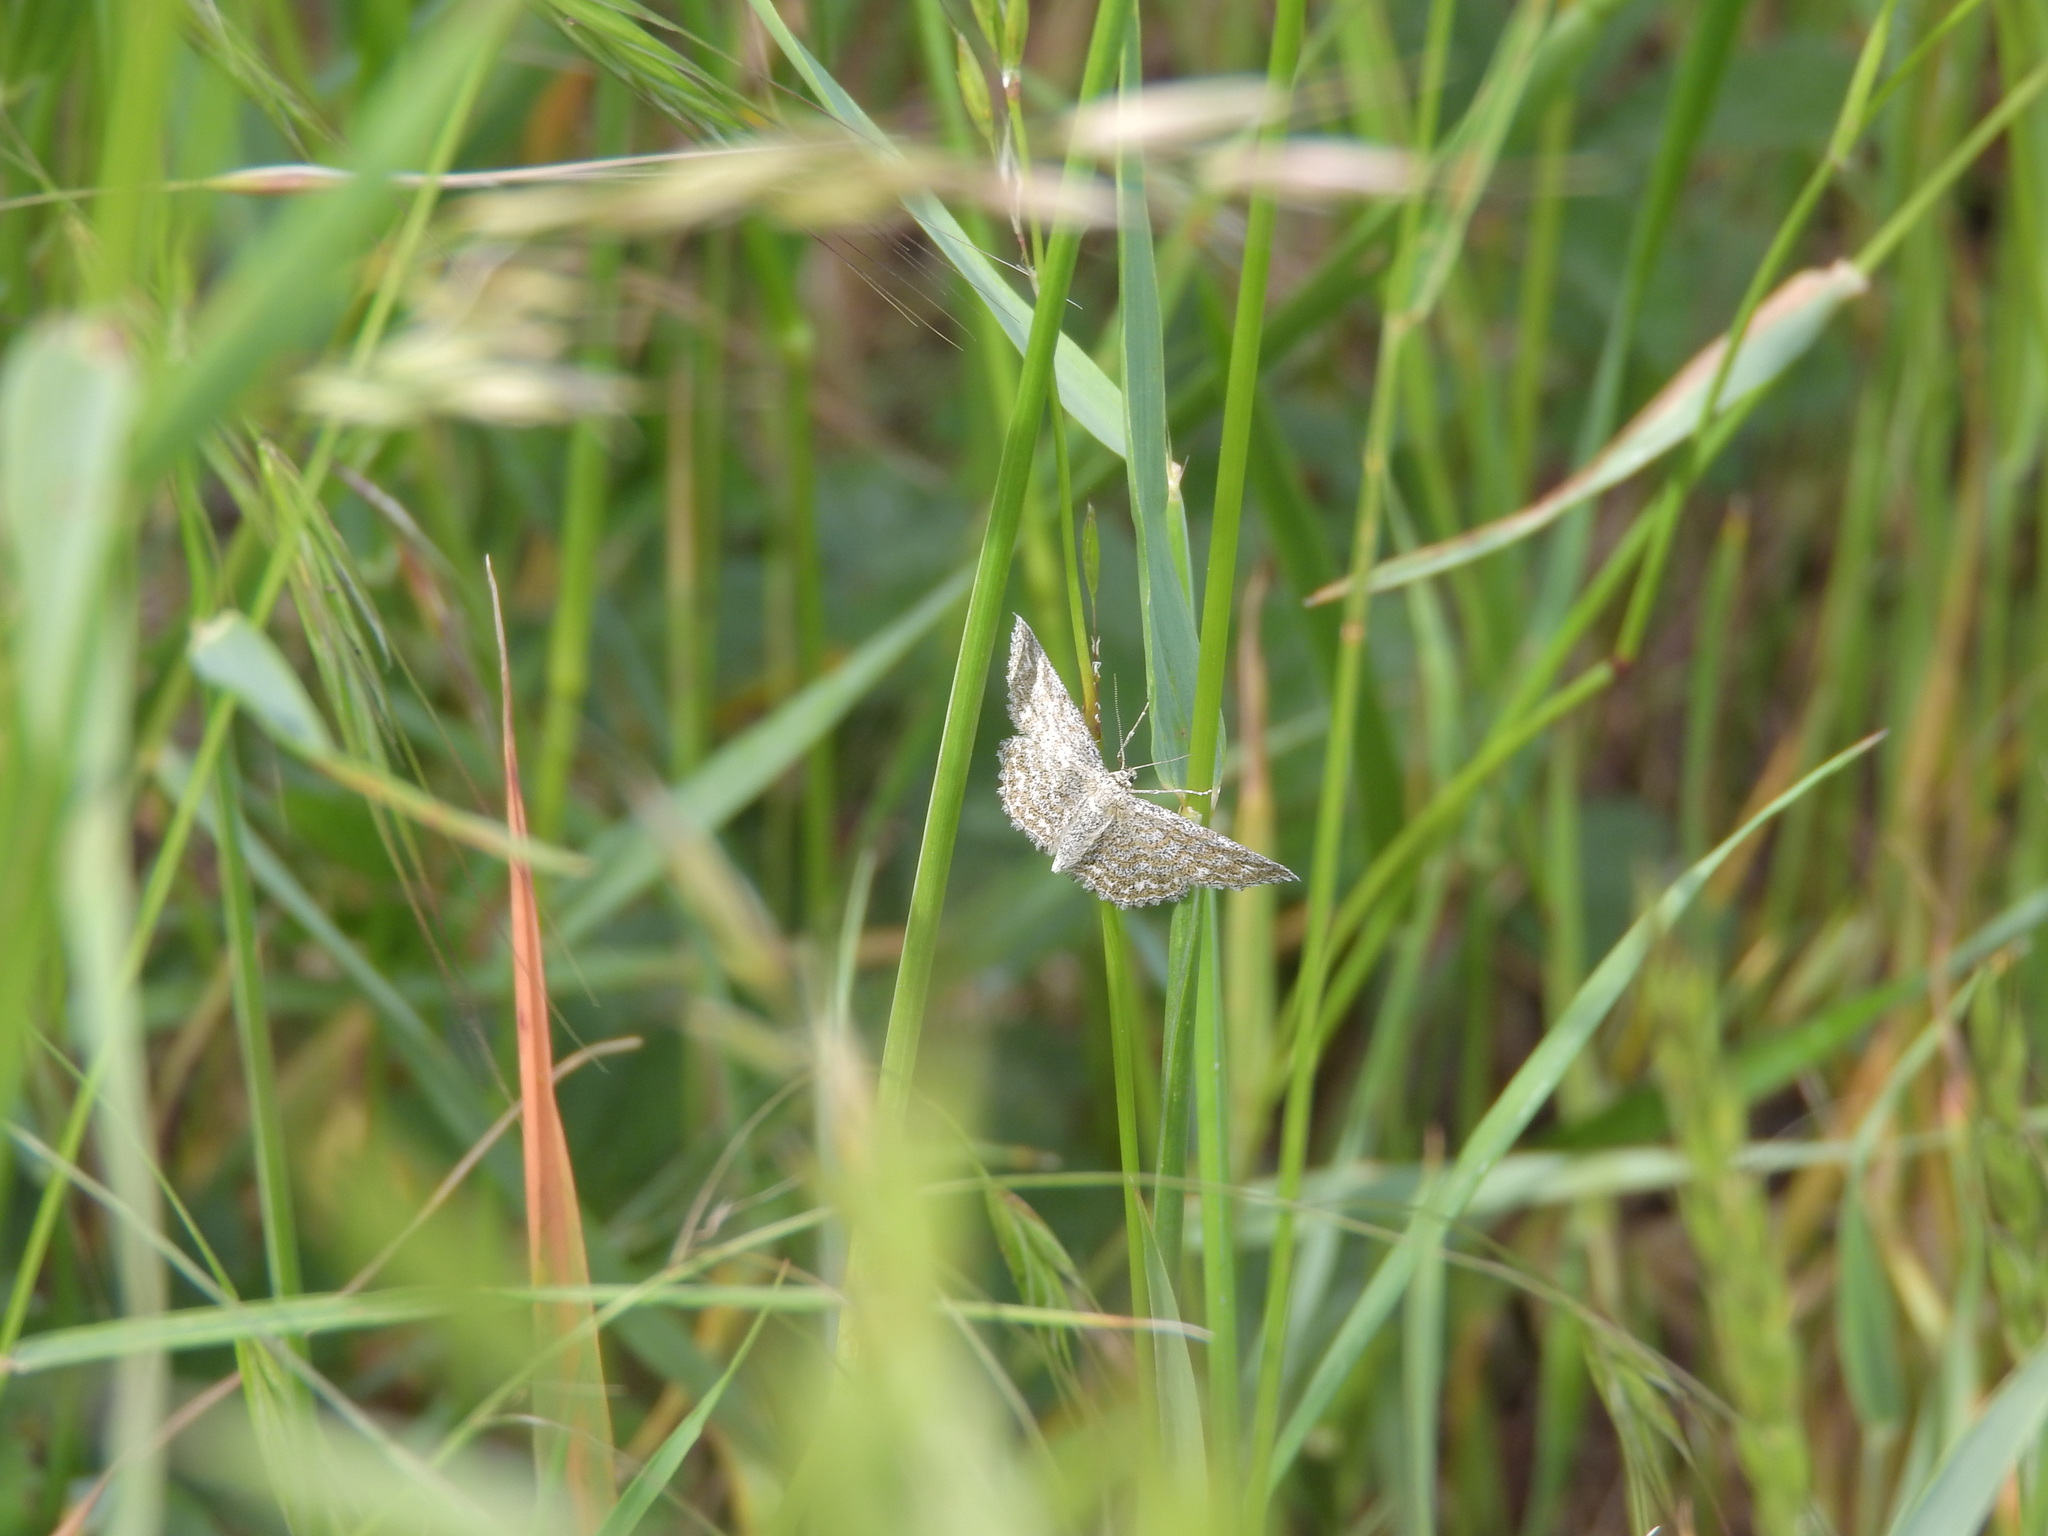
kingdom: Animalia
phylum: Arthropoda
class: Insecta
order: Lepidoptera
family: Geometridae
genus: Scopula
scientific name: Scopula immorata
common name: Lewes wave
